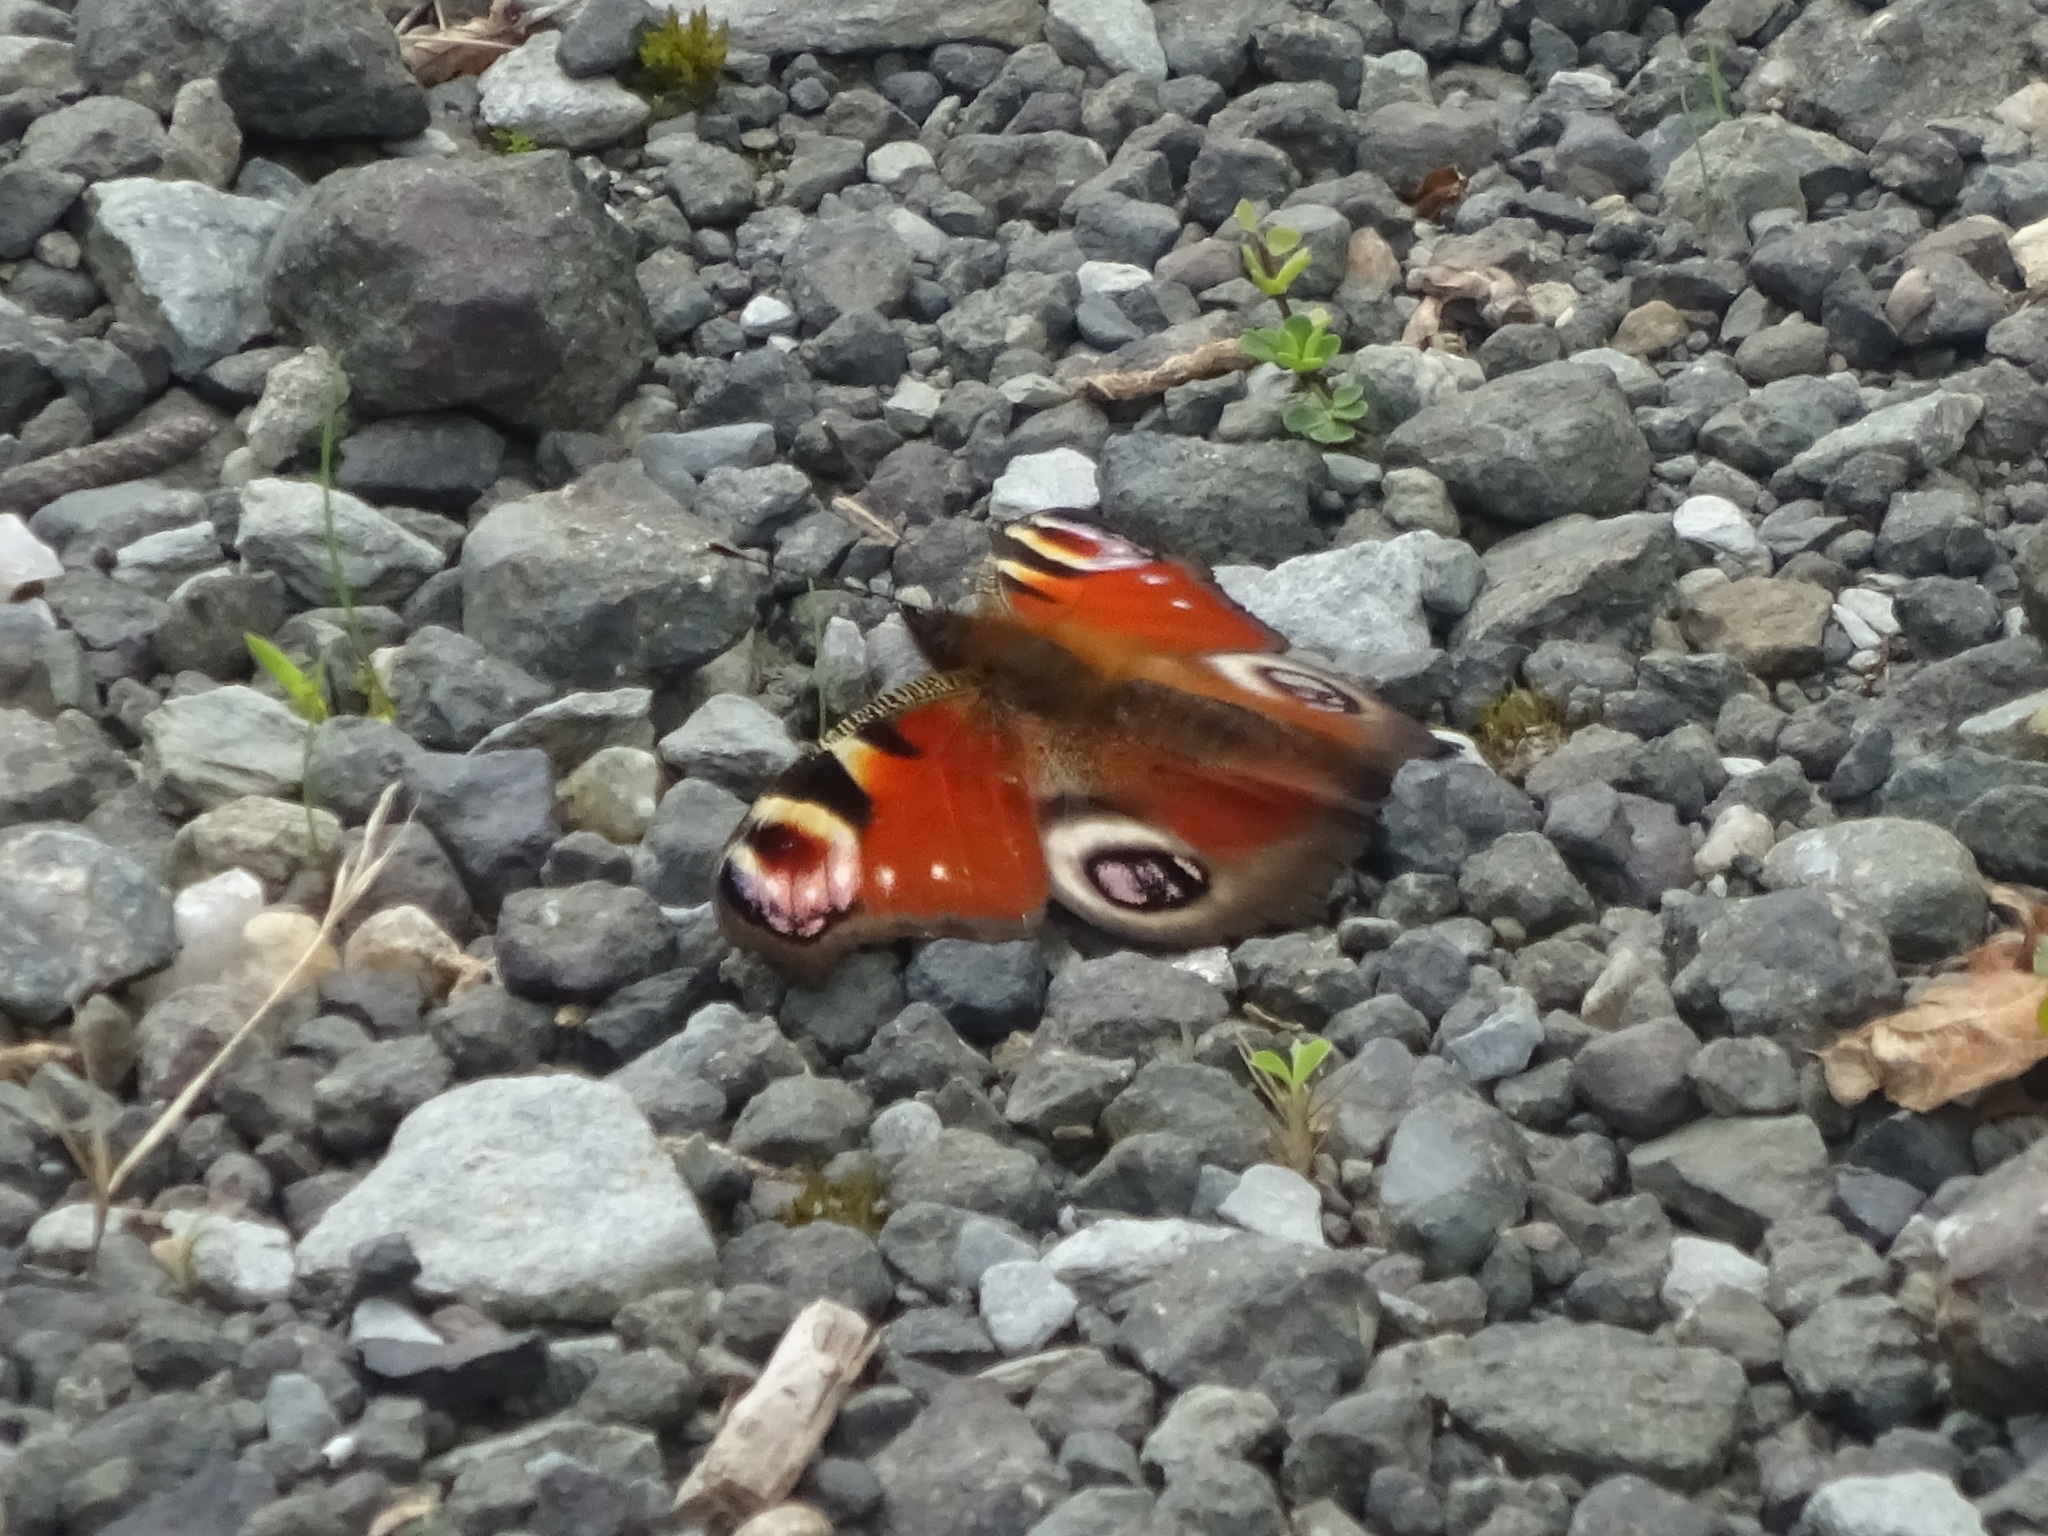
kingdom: Animalia
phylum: Arthropoda
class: Insecta
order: Lepidoptera
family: Nymphalidae
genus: Aglais
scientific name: Aglais io
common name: Peacock
